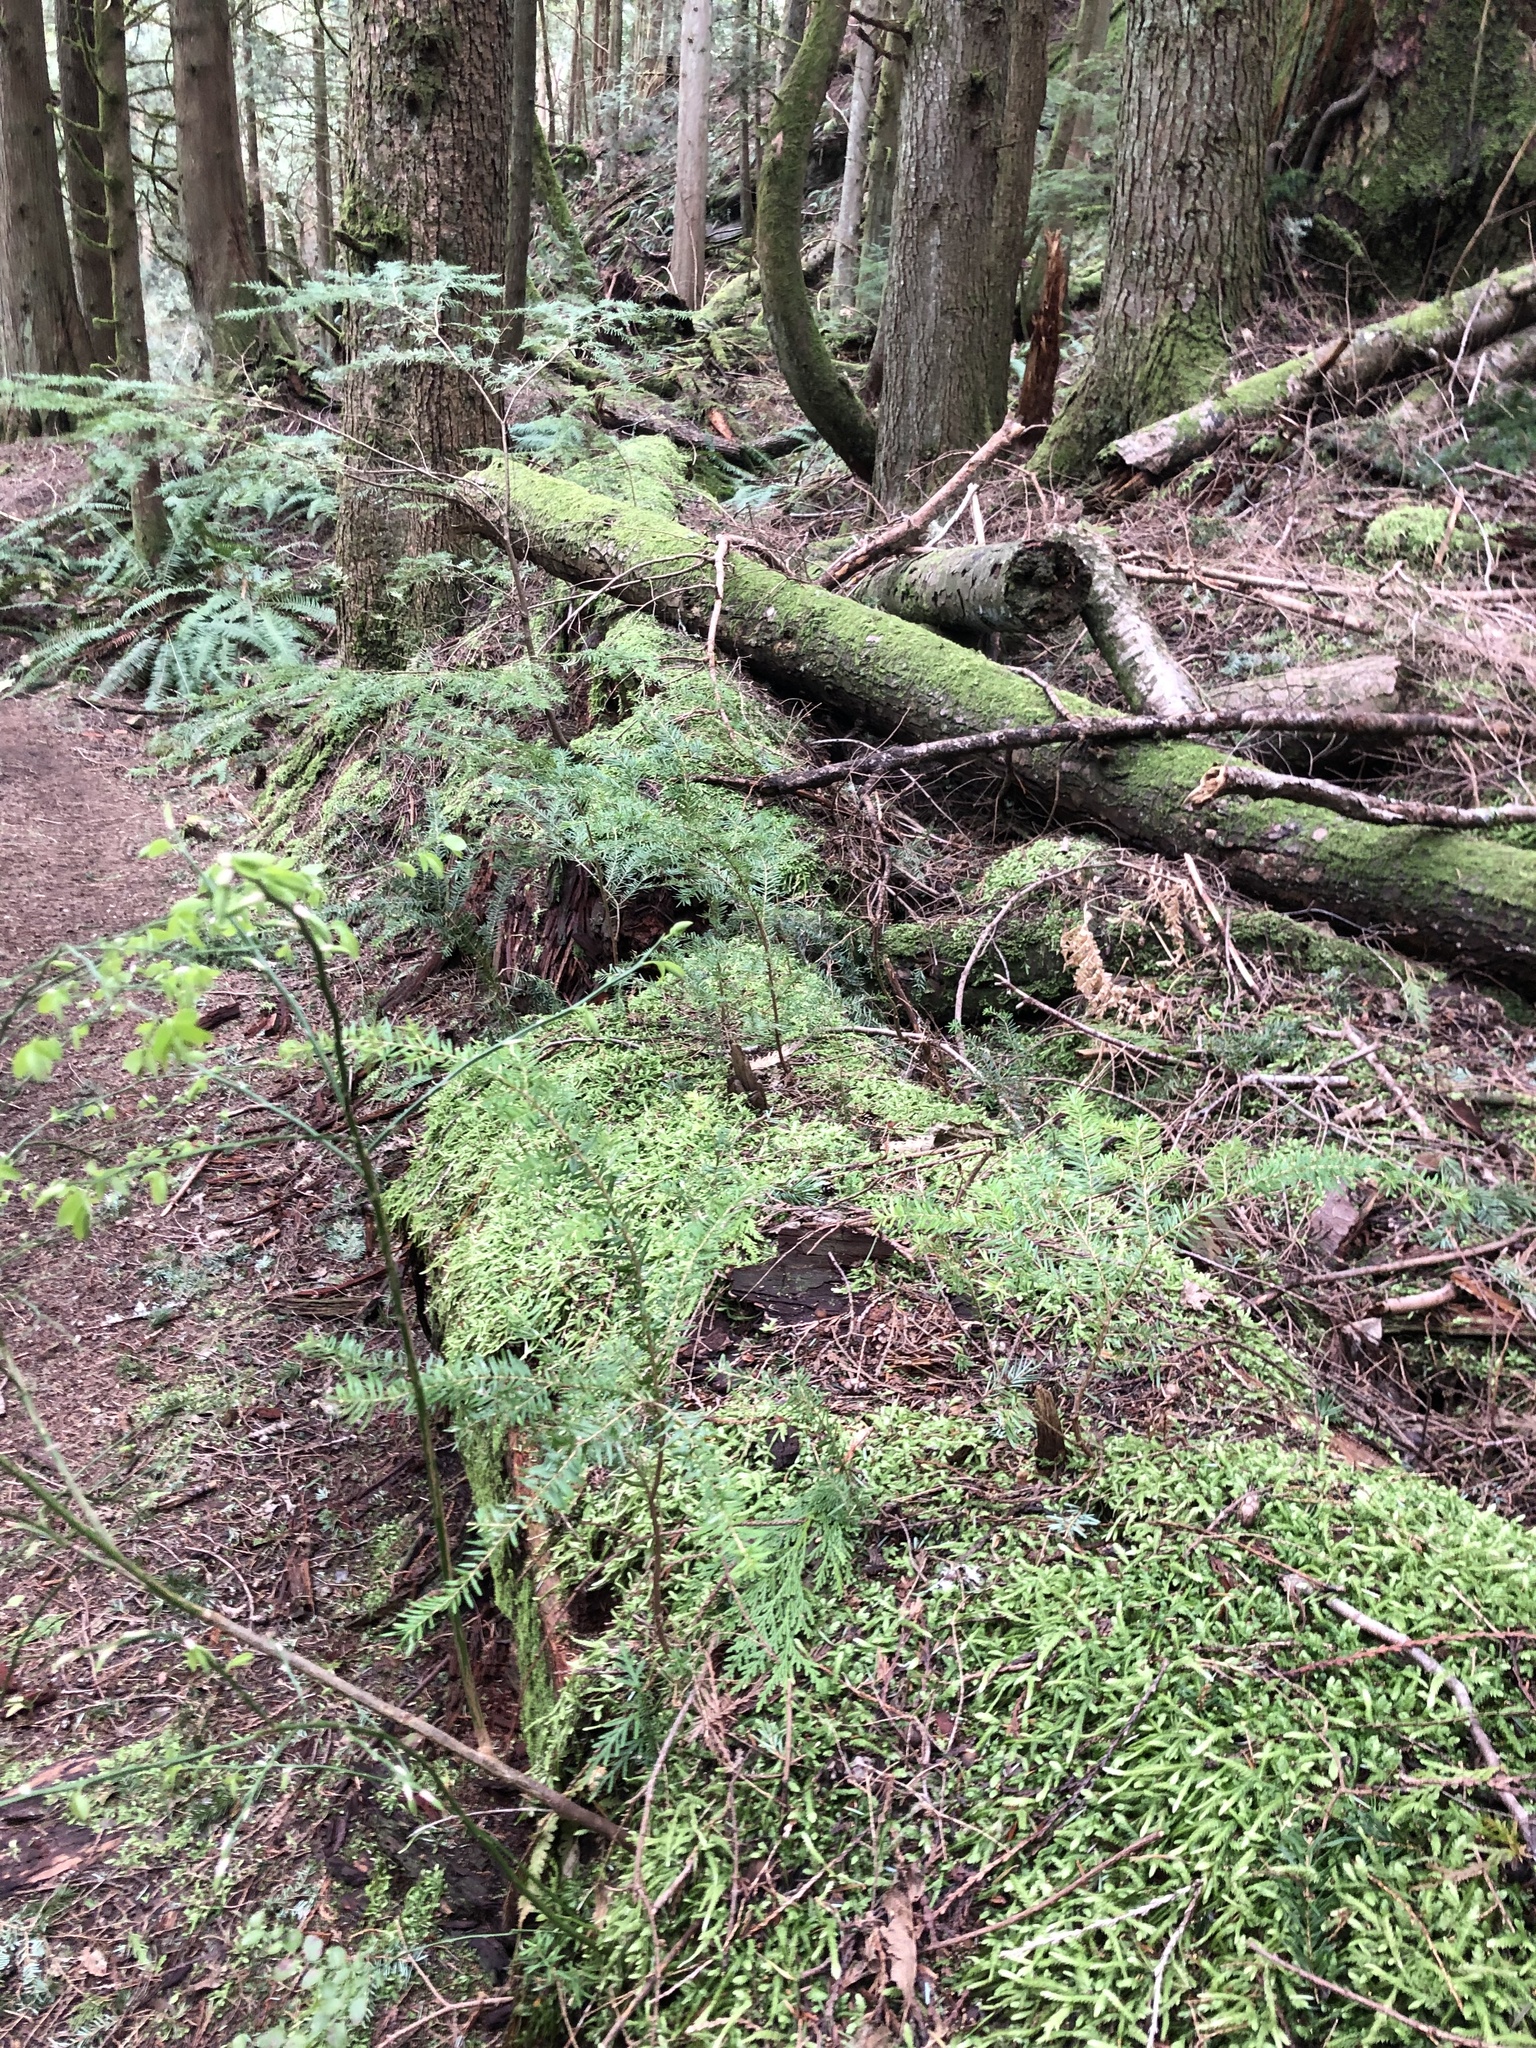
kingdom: Plantae
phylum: Tracheophyta
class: Pinopsida
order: Pinales
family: Pinaceae
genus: Tsuga
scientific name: Tsuga heterophylla
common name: Western hemlock
